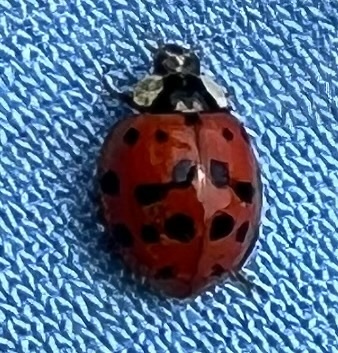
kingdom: Animalia
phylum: Arthropoda
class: Insecta
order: Coleoptera
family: Coccinellidae
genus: Harmonia
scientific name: Harmonia axyridis
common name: Harlequin ladybird
